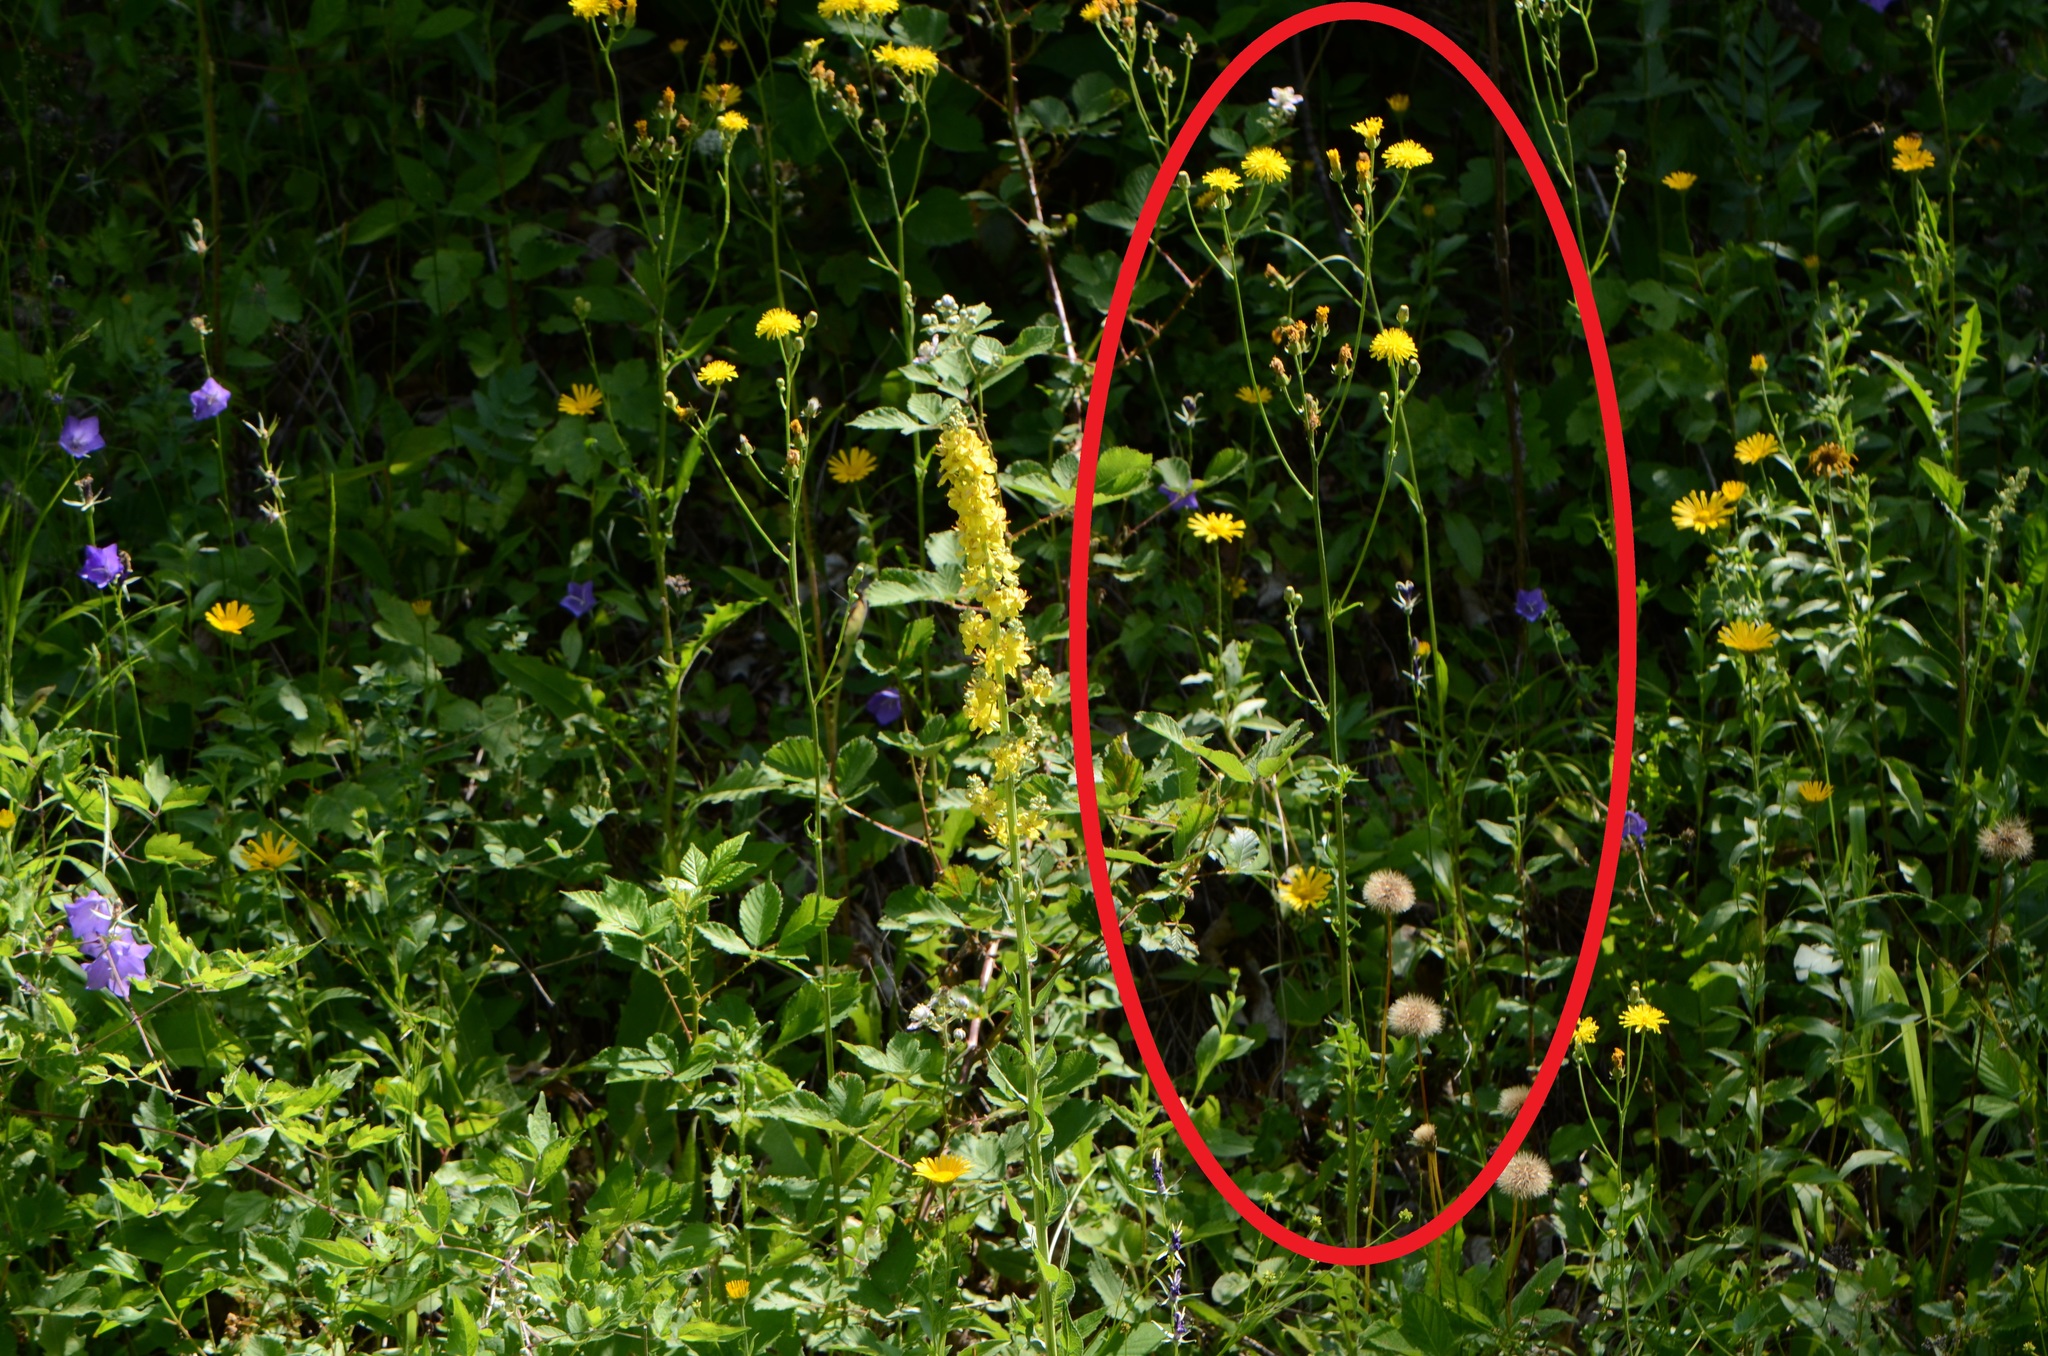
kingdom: Plantae
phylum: Tracheophyta
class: Magnoliopsida
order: Asterales
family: Asteraceae
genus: Crepis
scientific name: Crepis biennis
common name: Rough hawk's-beard
